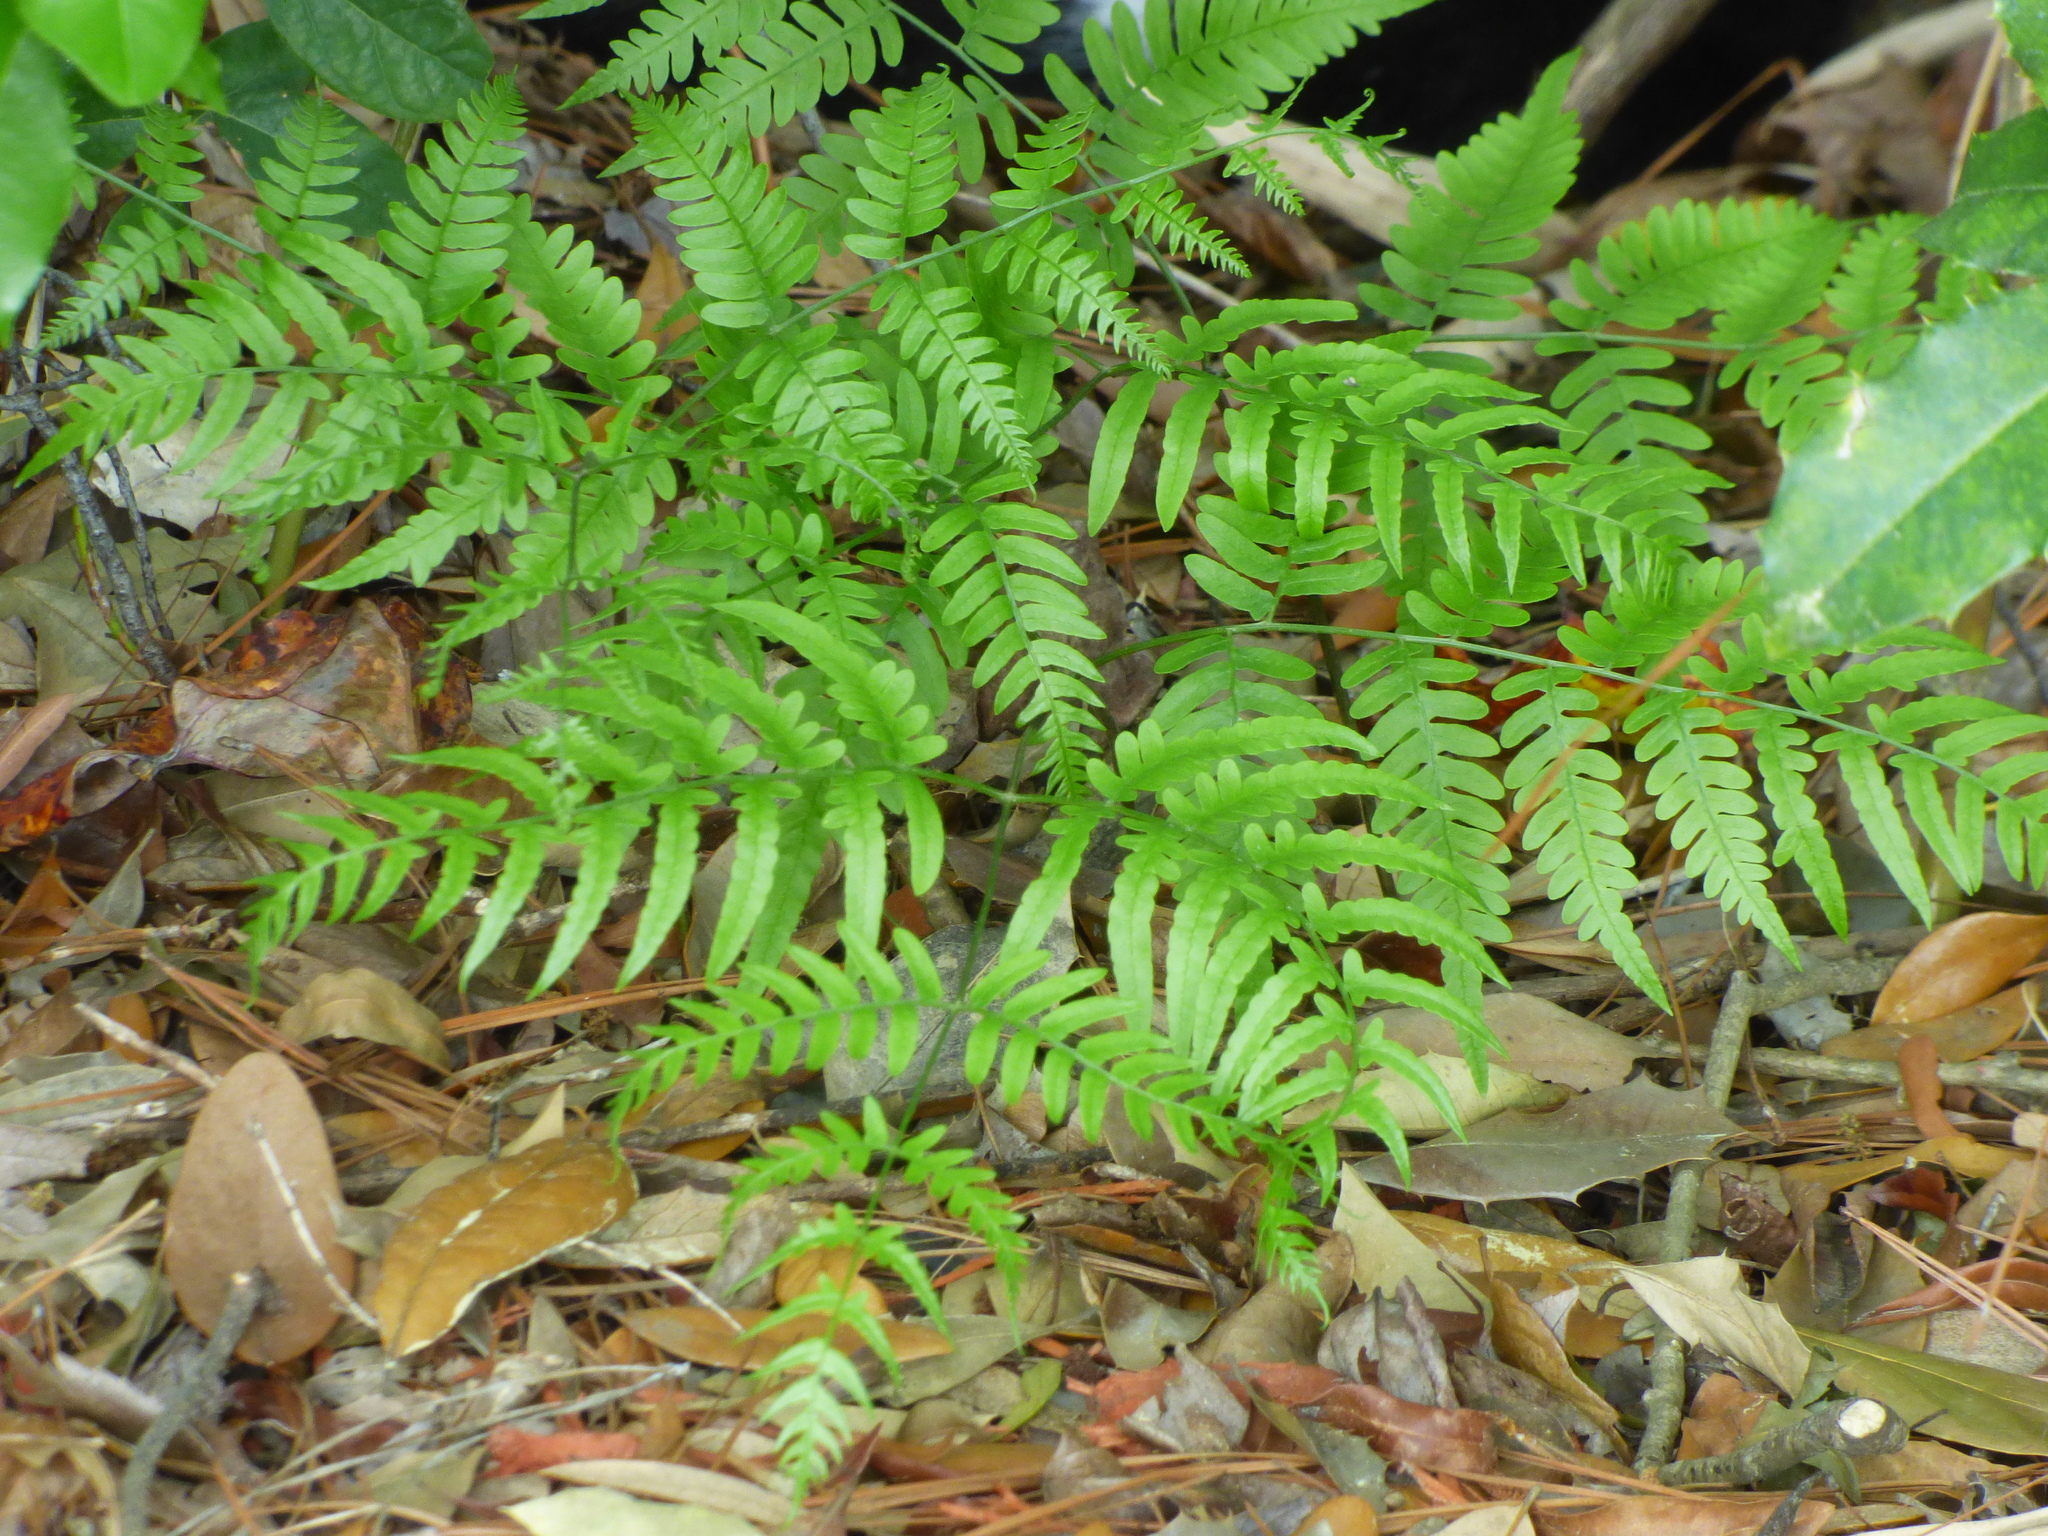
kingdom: Plantae
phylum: Tracheophyta
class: Polypodiopsida
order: Polypodiales
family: Dennstaedtiaceae
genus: Pteridium
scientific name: Pteridium aquilinum
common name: Bracken
